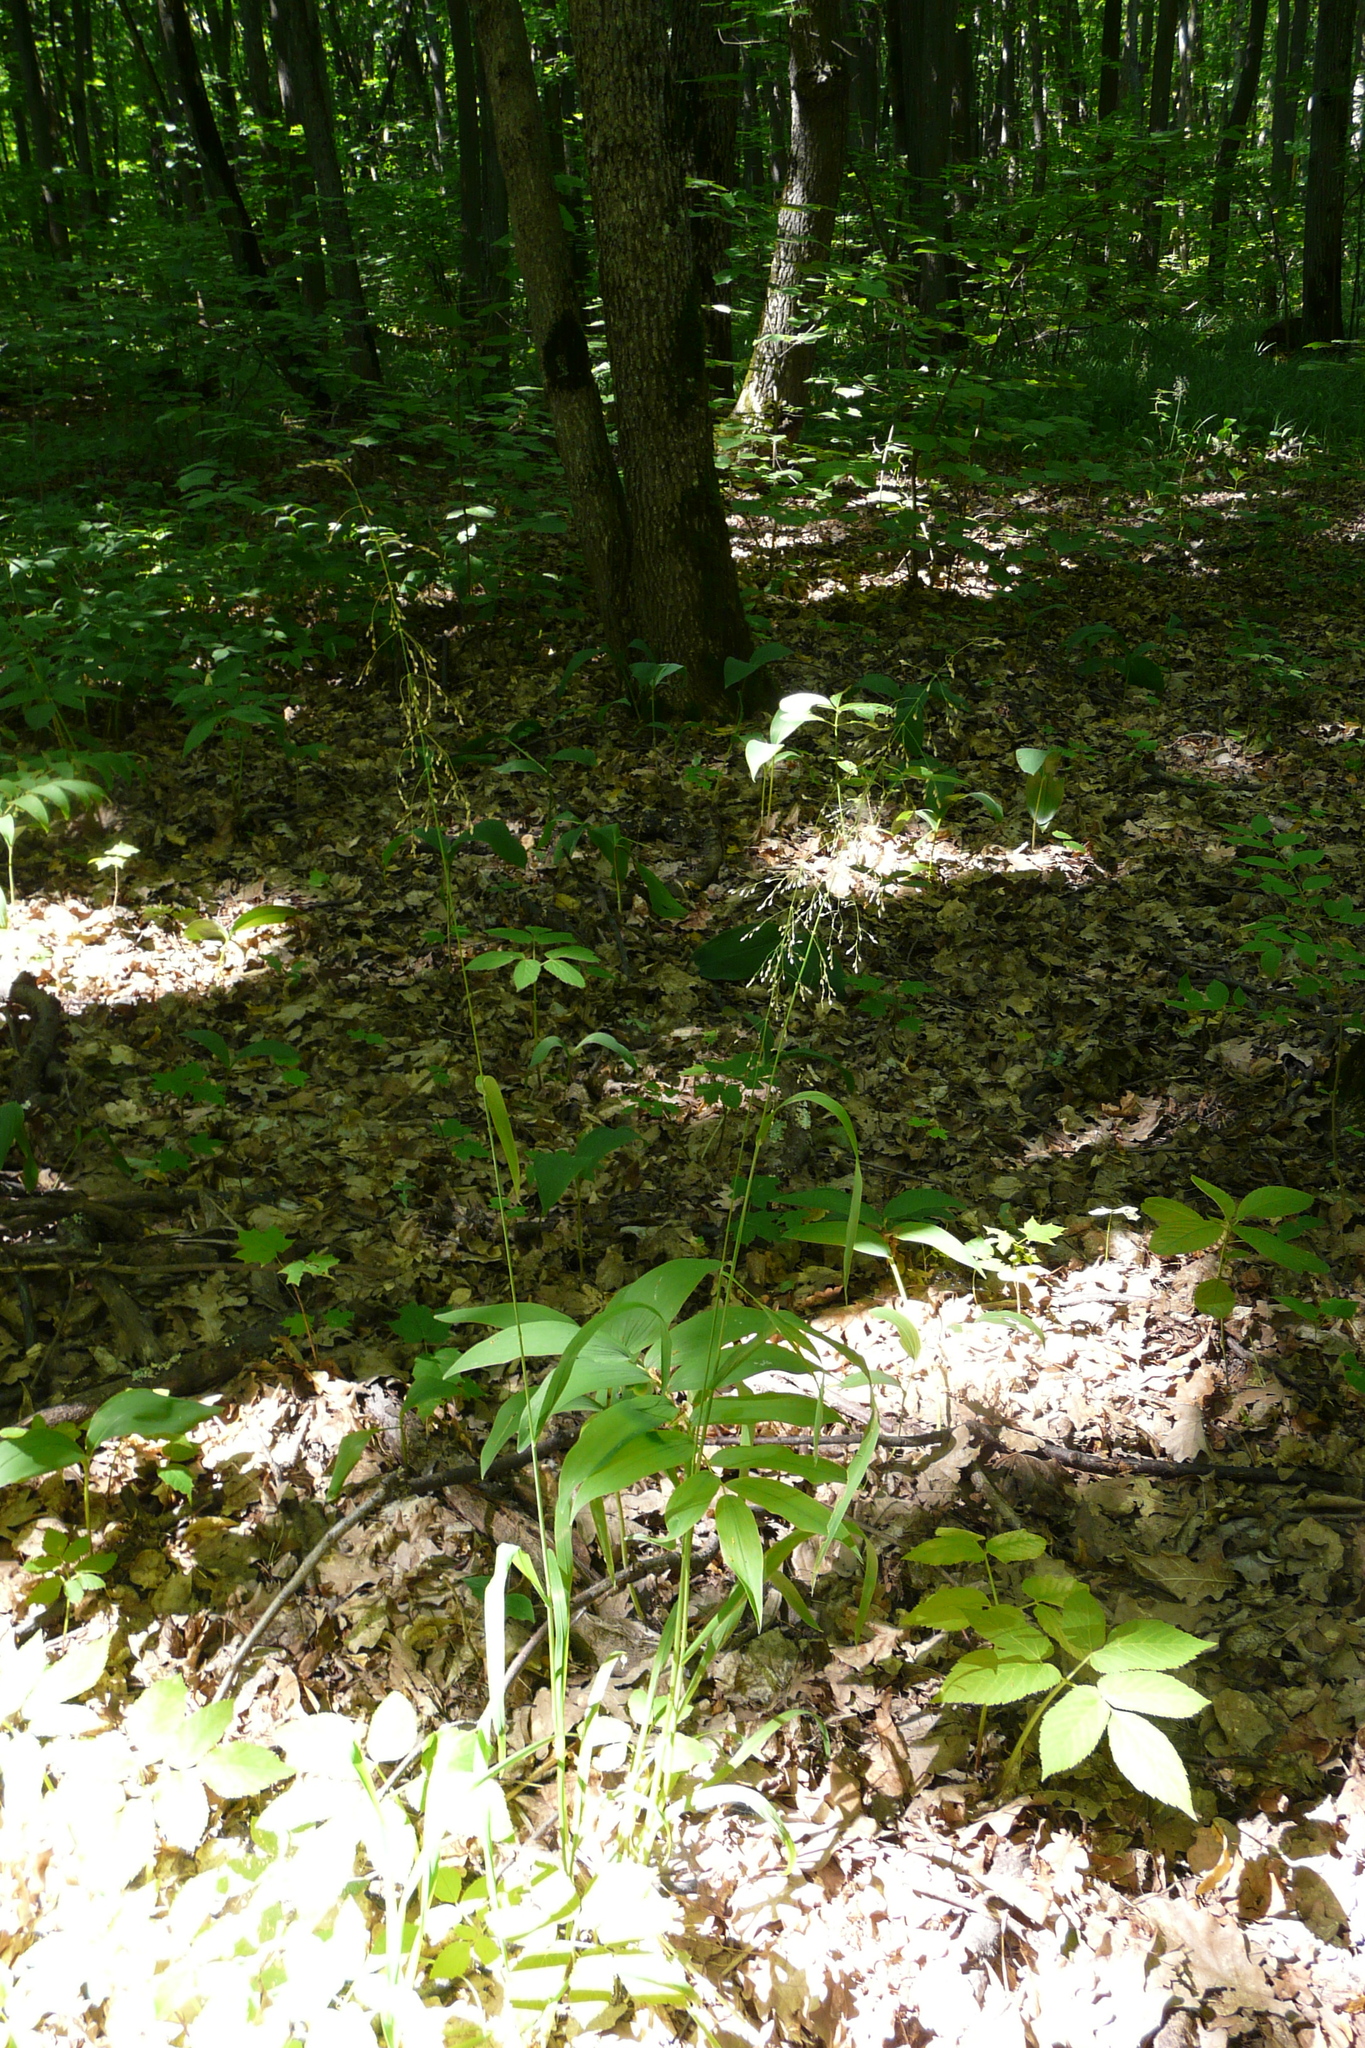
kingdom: Plantae
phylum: Tracheophyta
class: Liliopsida
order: Poales
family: Poaceae
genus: Milium
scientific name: Milium effusum
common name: Wood millet
